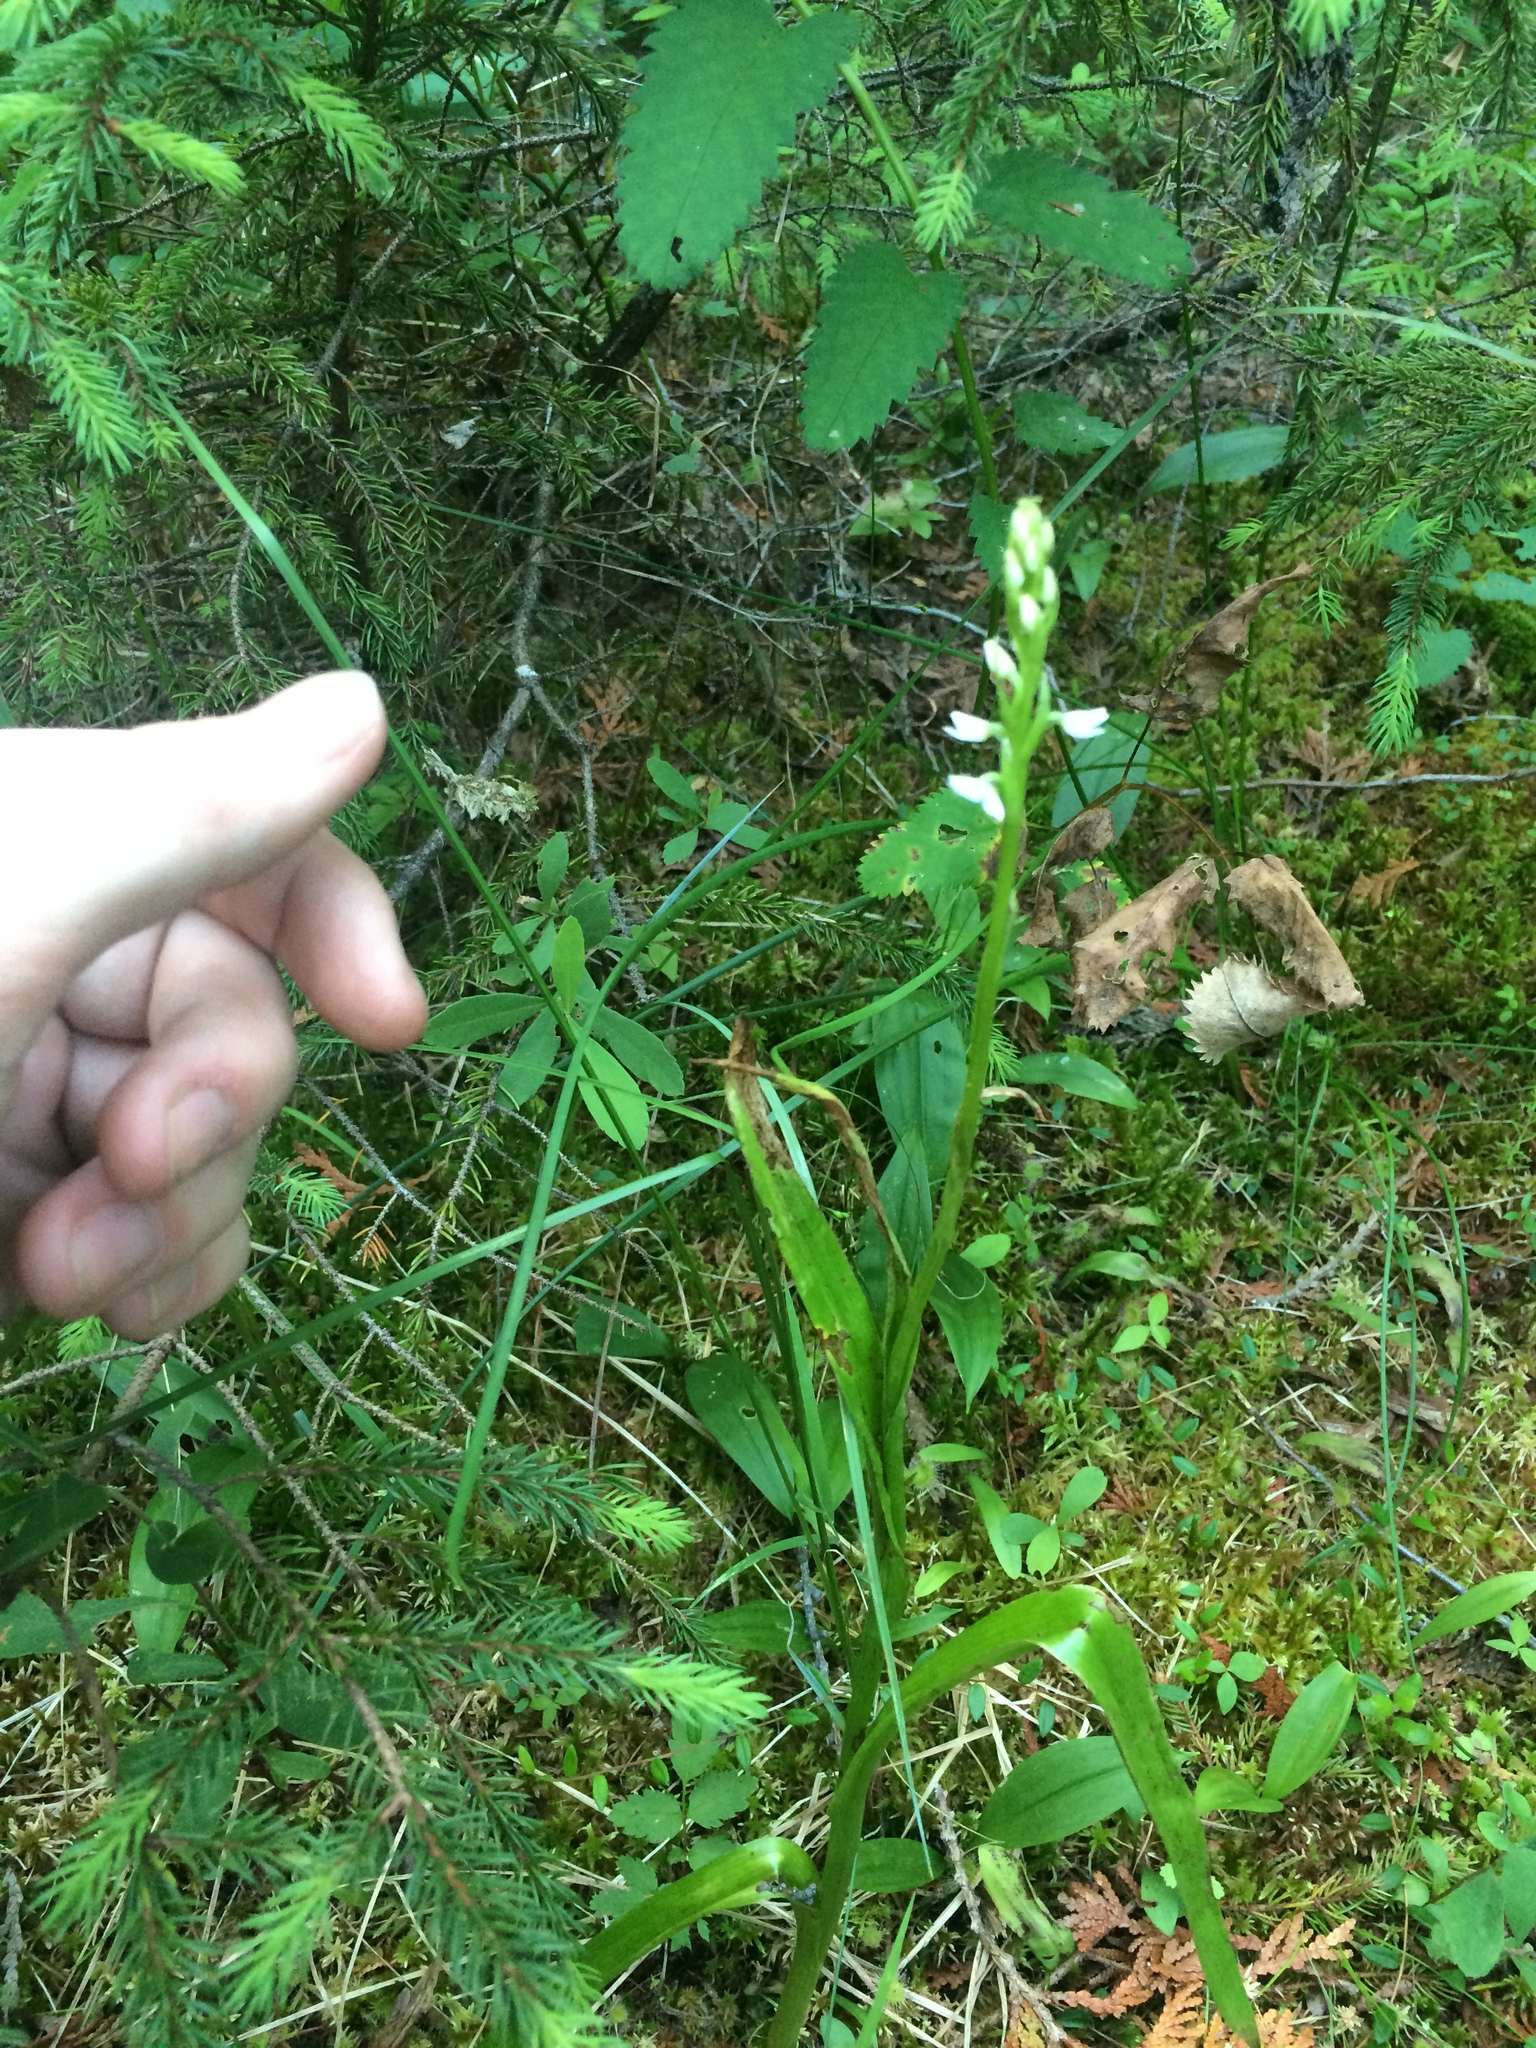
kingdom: Plantae
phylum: Tracheophyta
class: Liliopsida
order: Asparagales
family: Orchidaceae
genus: Platanthera
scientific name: Platanthera dilatata
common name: Bog candles
